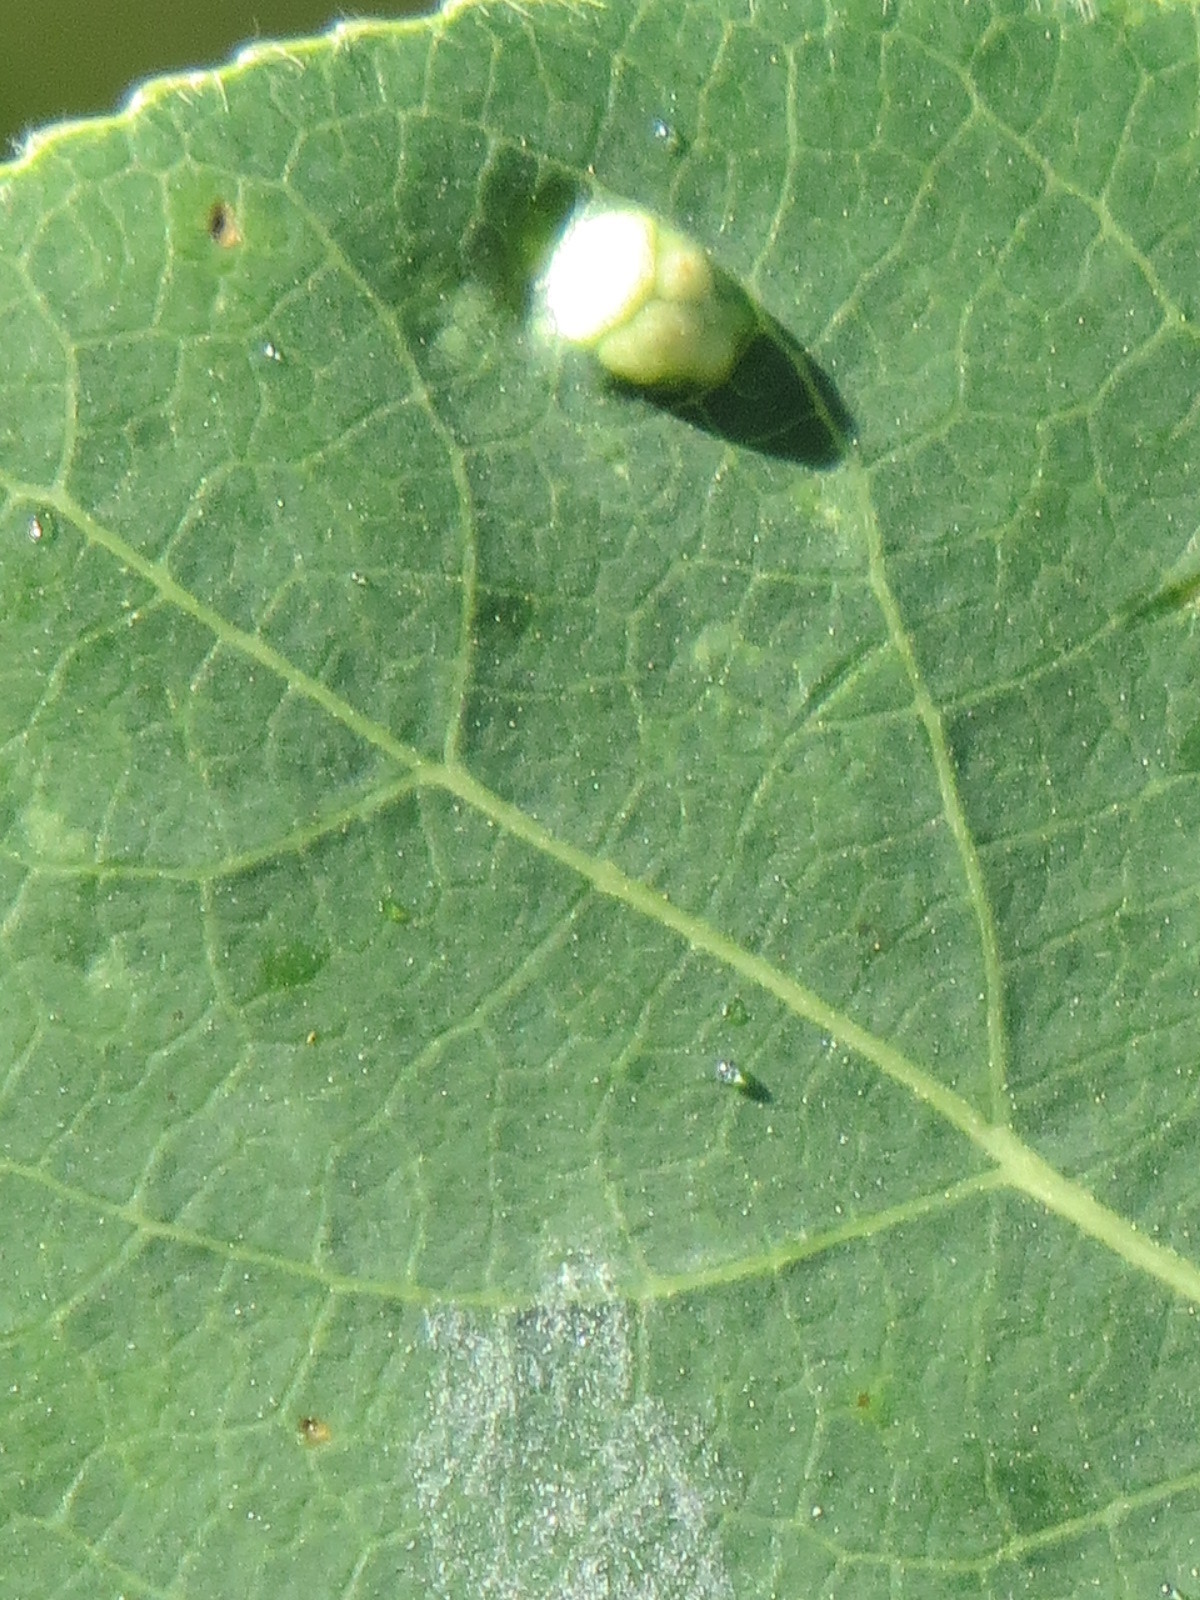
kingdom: Animalia
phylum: Arthropoda
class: Arachnida
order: Trombidiformes
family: Eriophyidae
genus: Phyllocoptes
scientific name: Phyllocoptes
